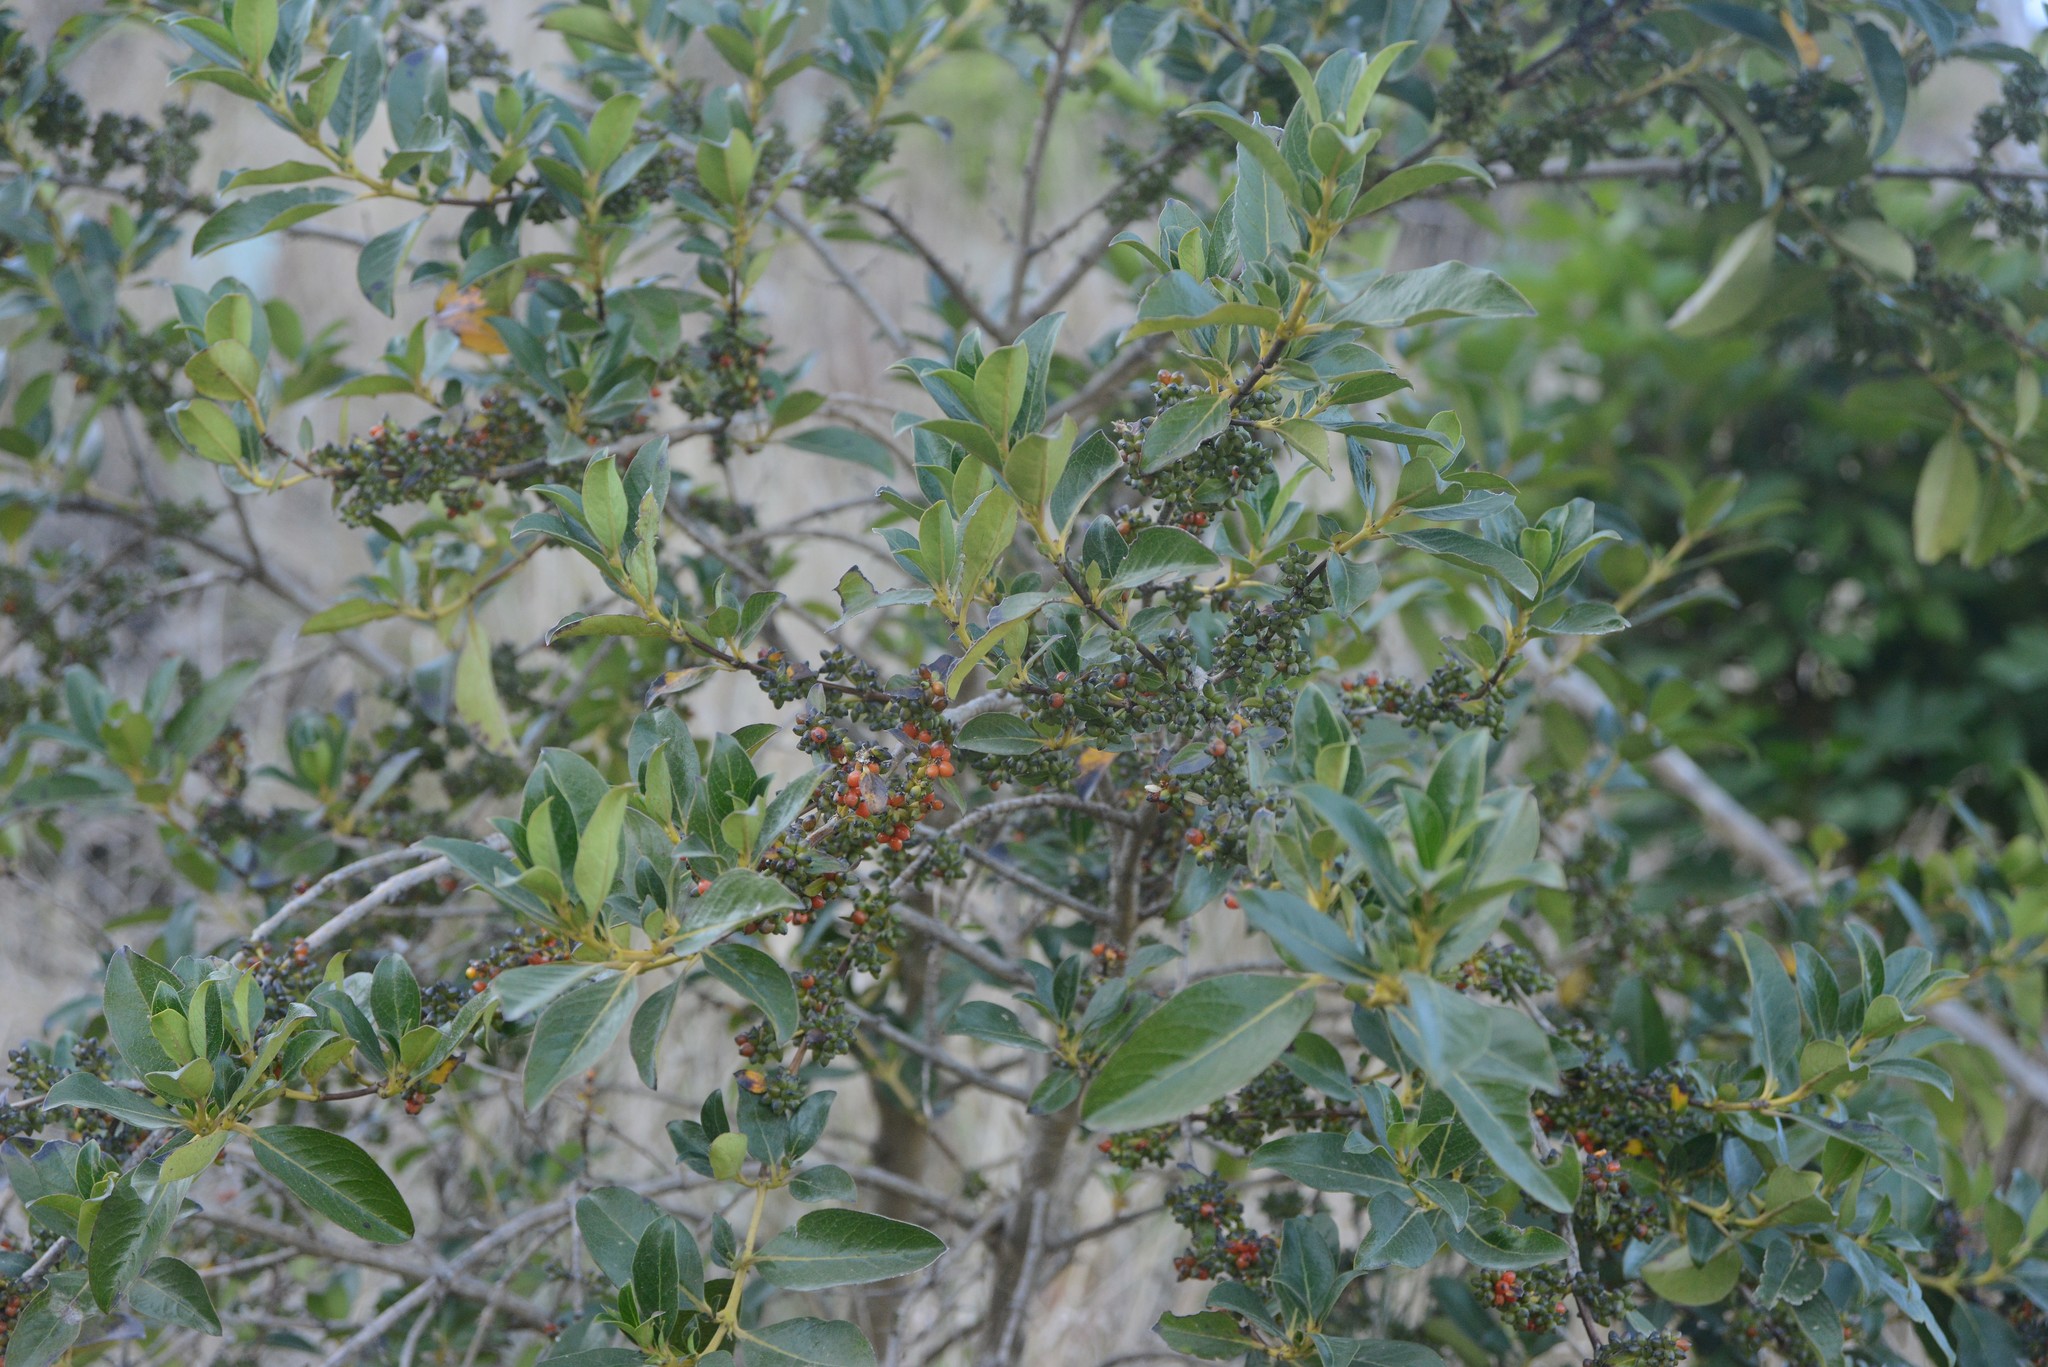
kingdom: Plantae
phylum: Tracheophyta
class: Magnoliopsida
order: Gentianales
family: Rubiaceae
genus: Coprosma
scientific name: Coprosma robusta
